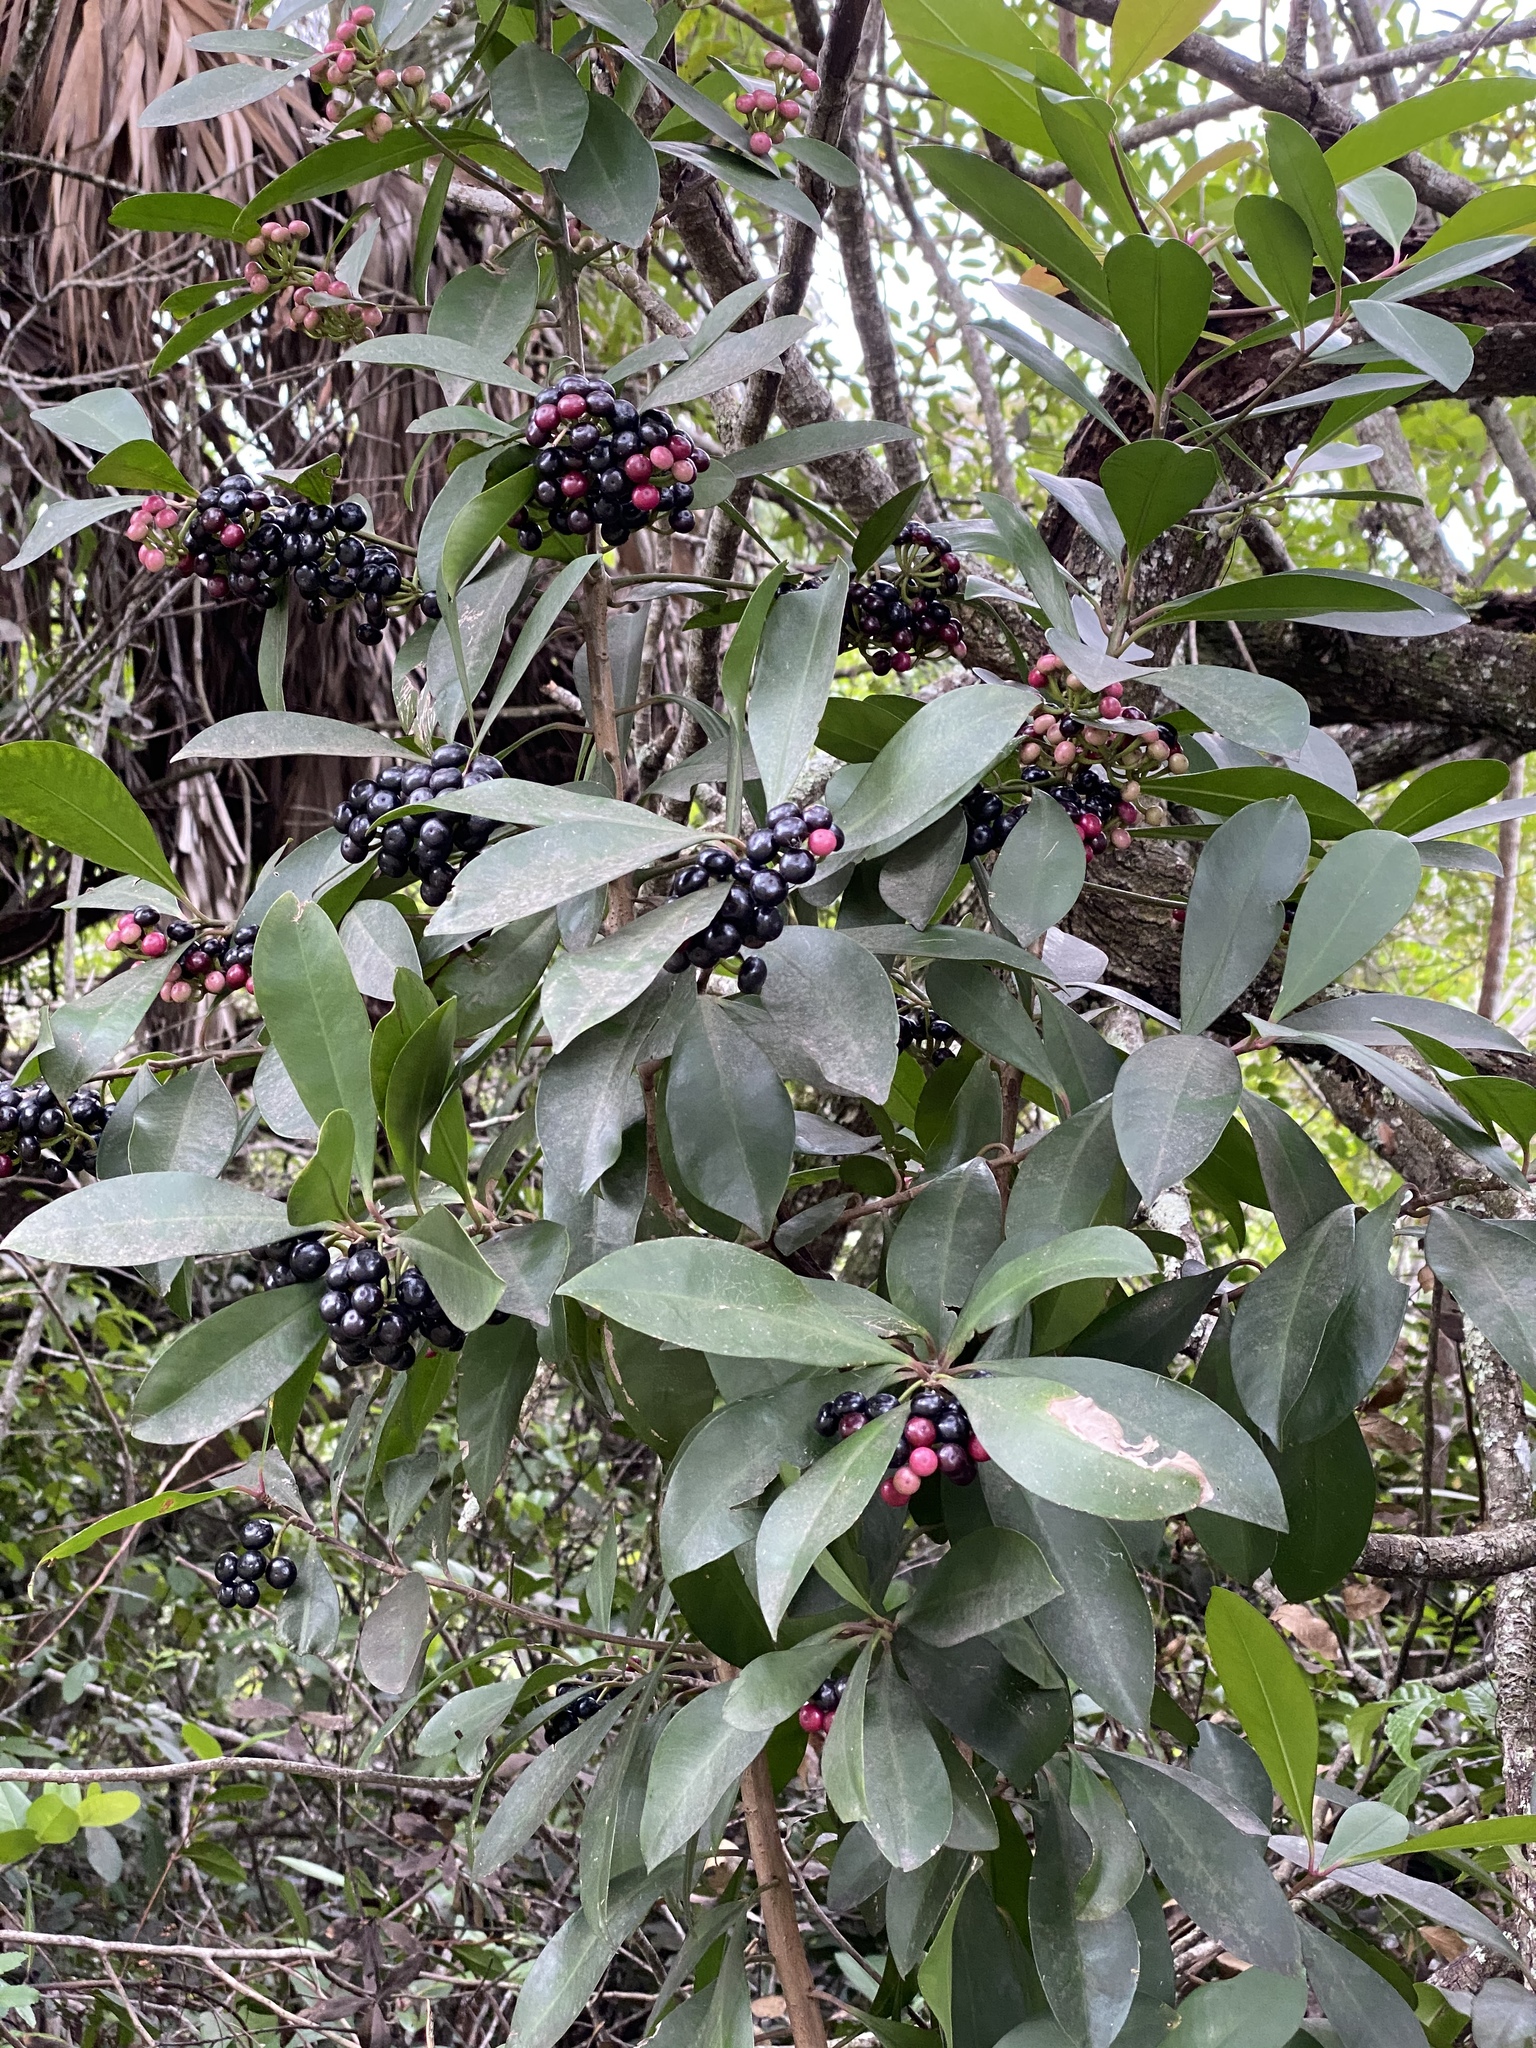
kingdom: Plantae
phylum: Tracheophyta
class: Magnoliopsida
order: Ericales
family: Primulaceae
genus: Ardisia
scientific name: Ardisia elliptica
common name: Shoebutton
